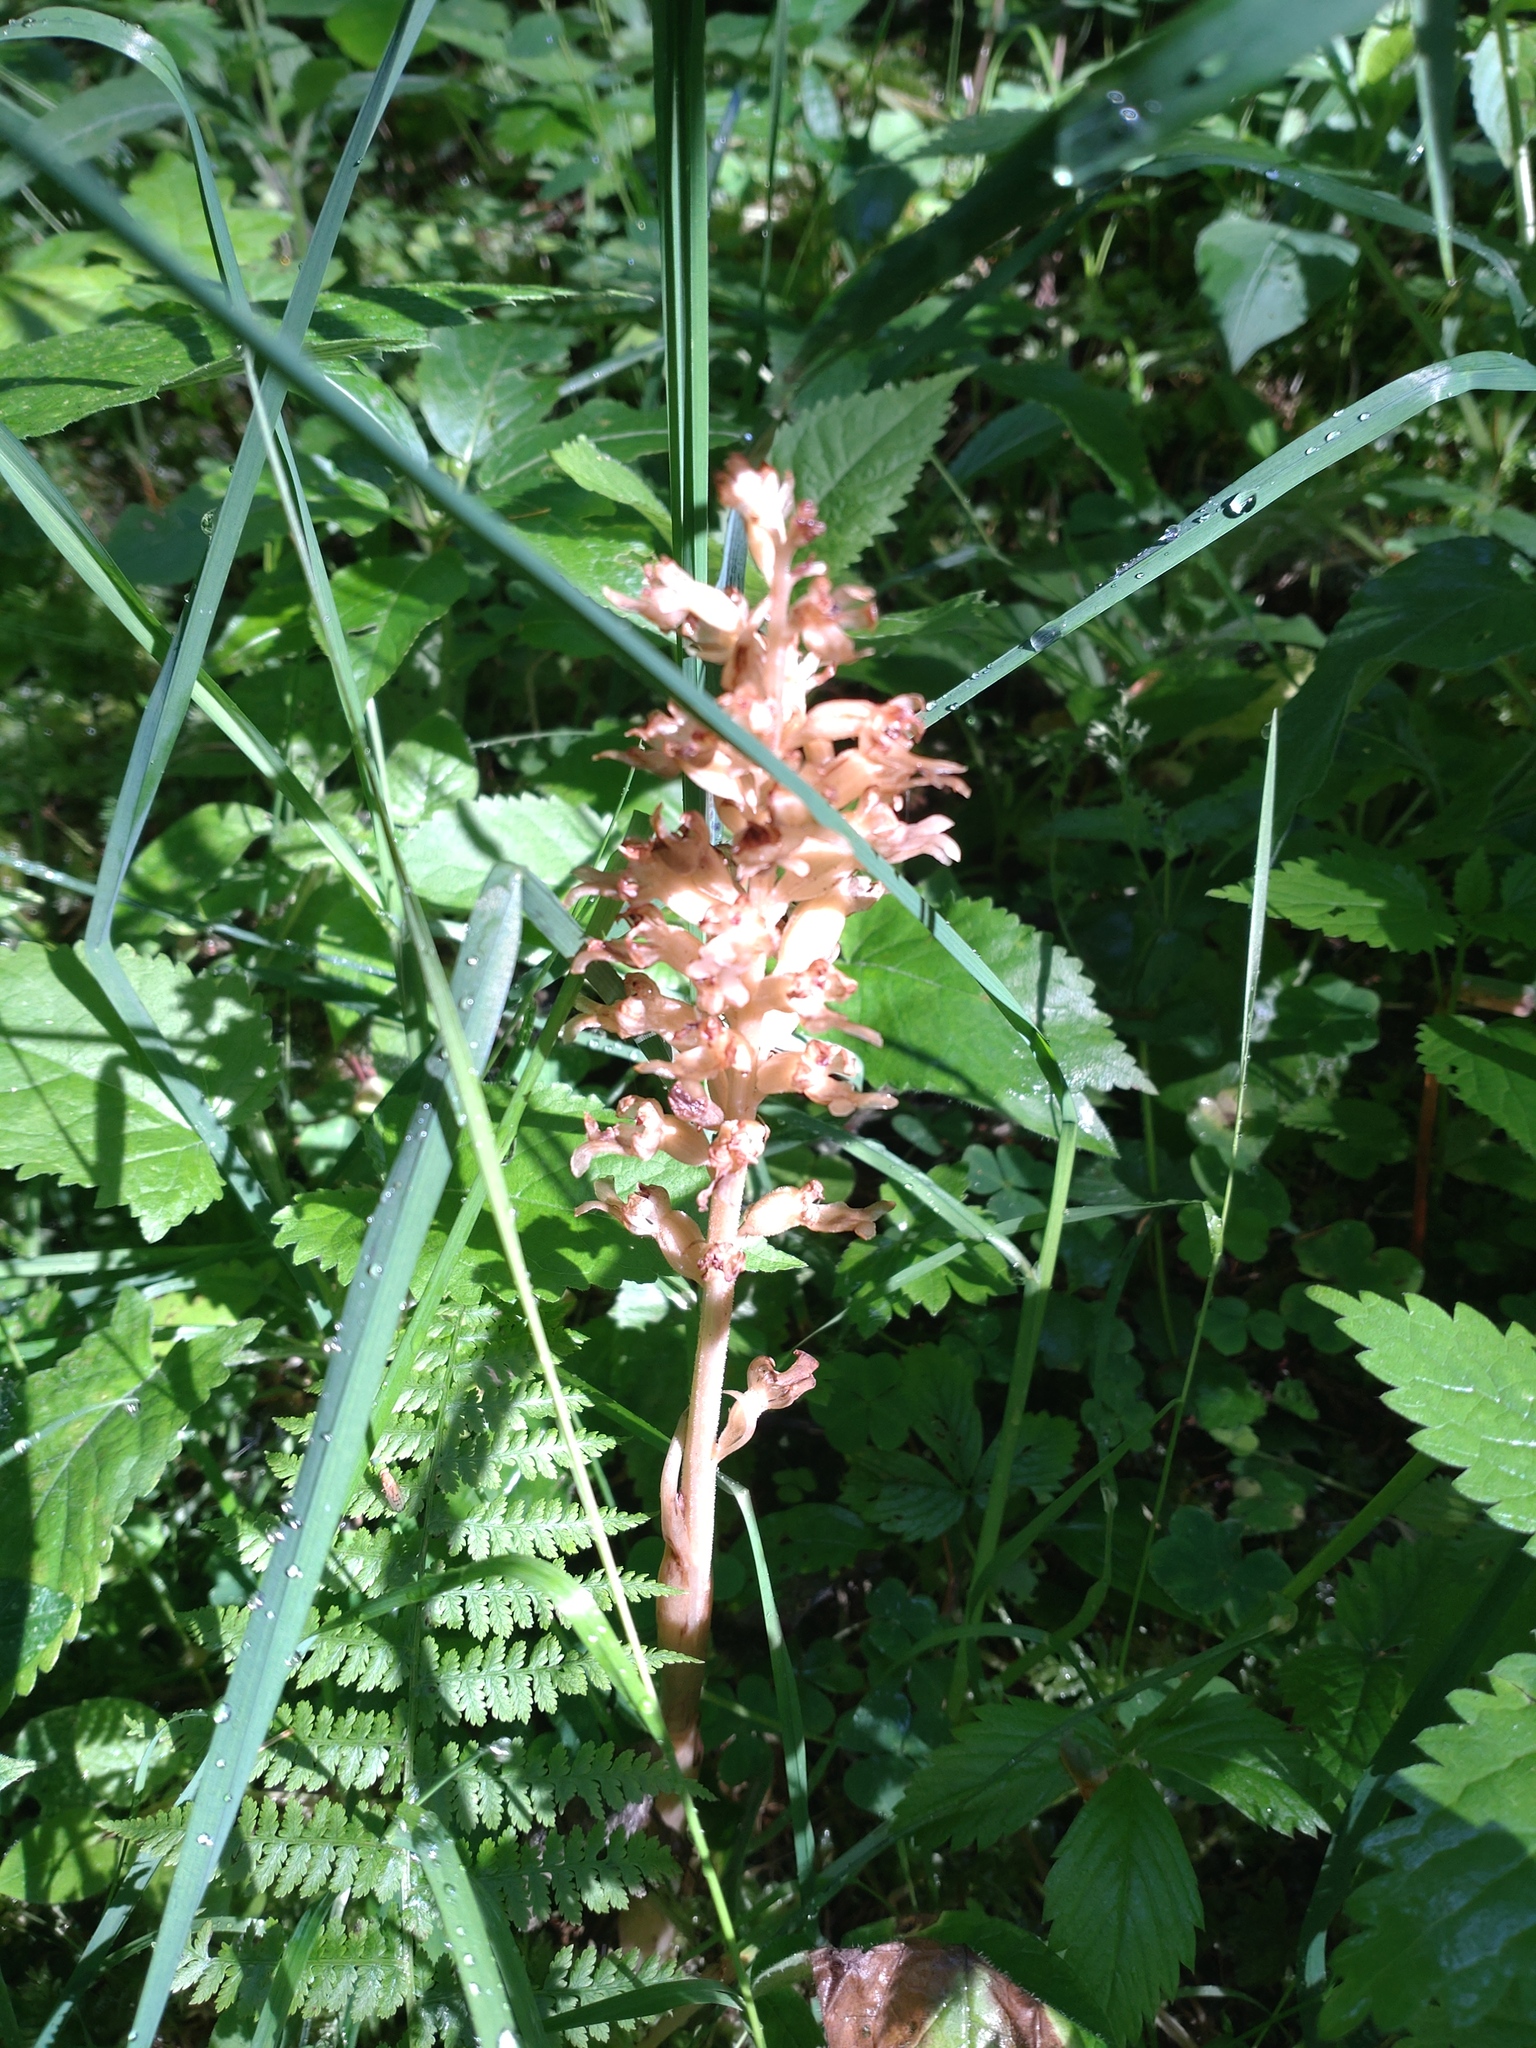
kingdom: Plantae
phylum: Tracheophyta
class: Liliopsida
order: Asparagales
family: Orchidaceae
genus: Neottia
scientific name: Neottia nidus-avis
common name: Bird's-nest orchid
